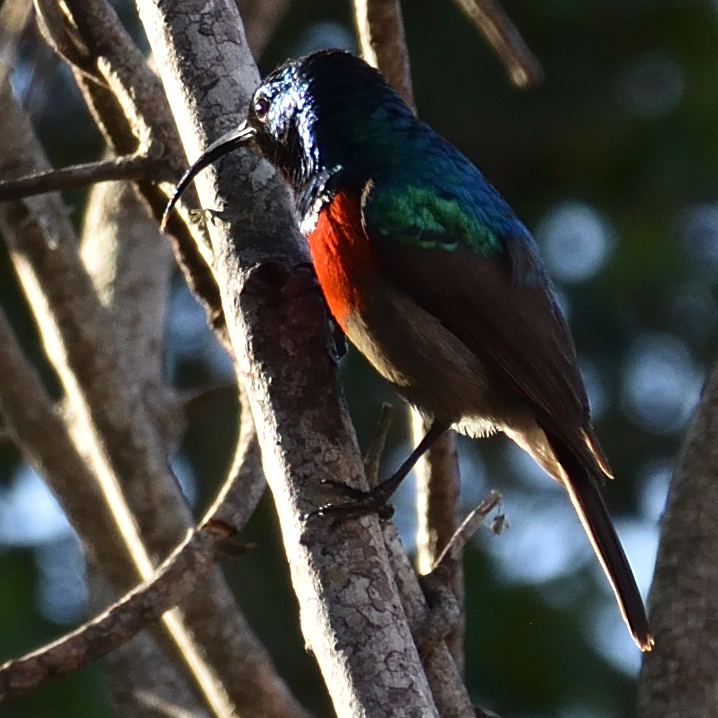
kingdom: Animalia
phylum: Chordata
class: Aves
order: Passeriformes
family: Nectariniidae
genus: Cinnyris
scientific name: Cinnyris afer
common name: Greater double-collared sunbird
